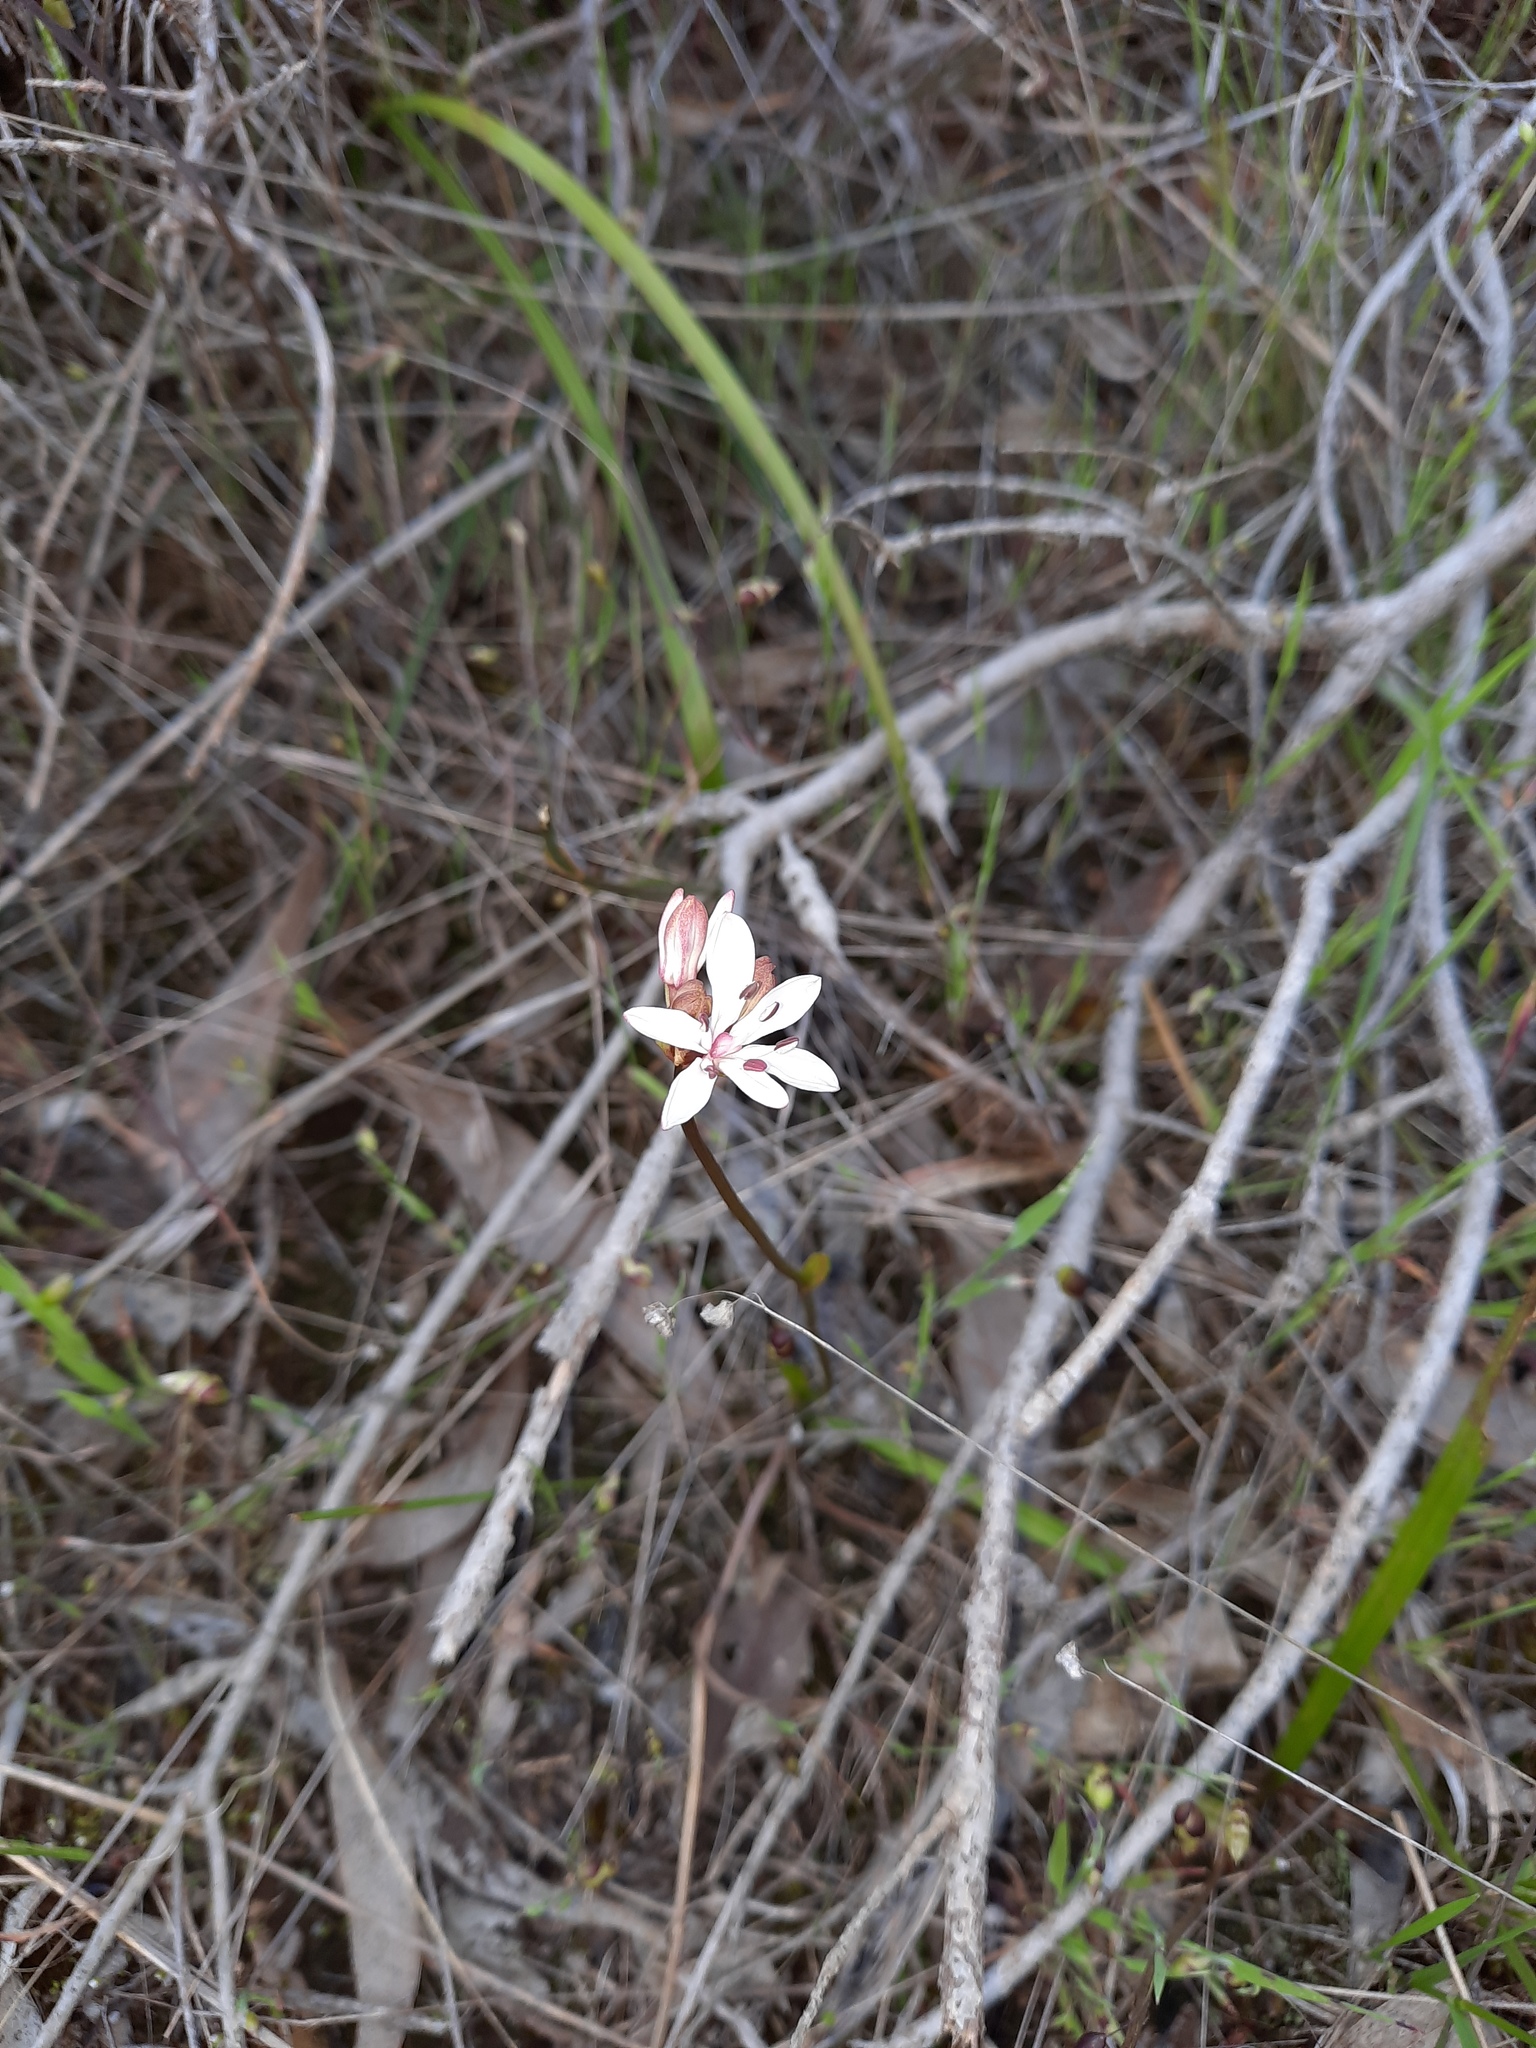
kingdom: Plantae
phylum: Tracheophyta
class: Liliopsida
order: Liliales
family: Colchicaceae
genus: Burchardia
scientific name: Burchardia umbellata
